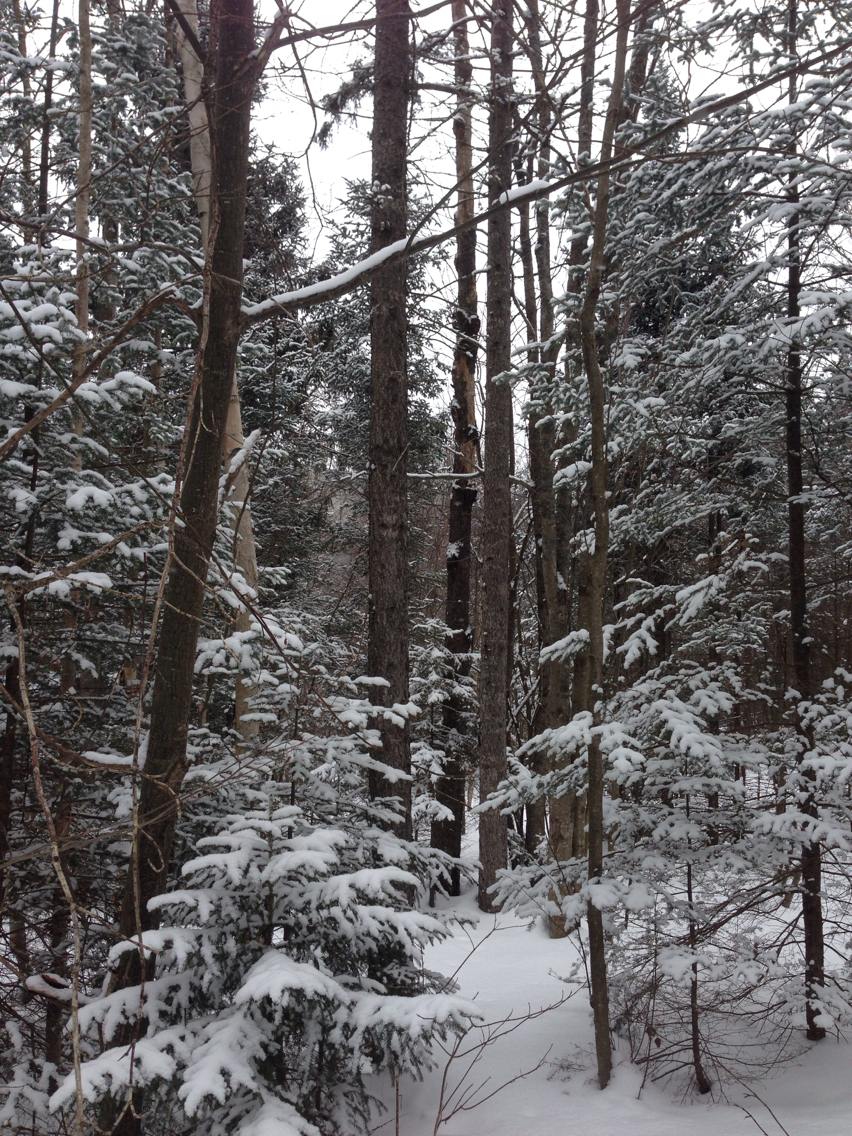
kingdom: Plantae
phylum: Tracheophyta
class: Pinopsida
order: Pinales
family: Pinaceae
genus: Picea
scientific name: Picea rubens
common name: Red spruce
